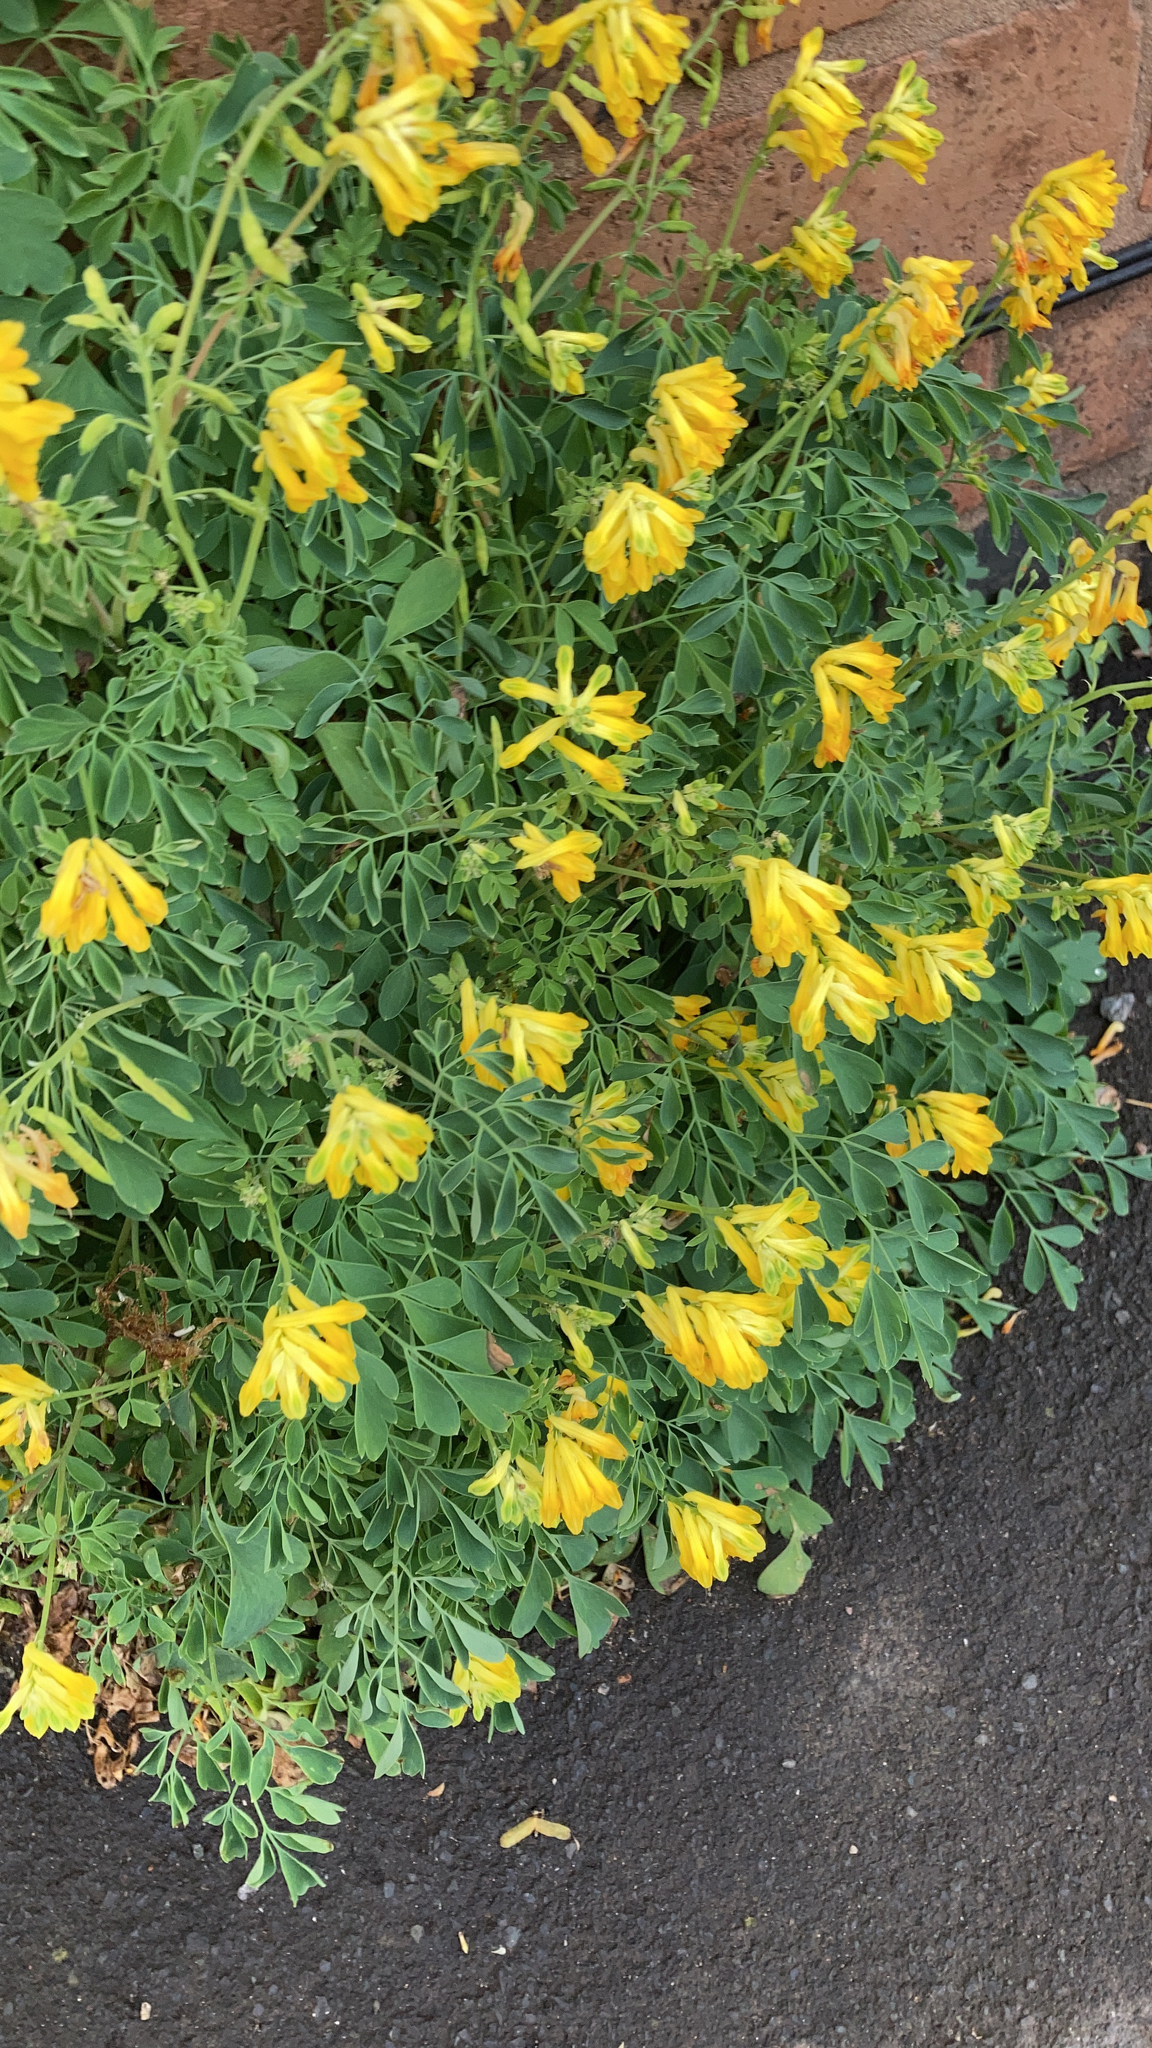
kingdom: Plantae
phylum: Tracheophyta
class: Magnoliopsida
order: Ranunculales
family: Papaveraceae
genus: Pseudofumaria
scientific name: Pseudofumaria lutea
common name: Yellow corydalis
